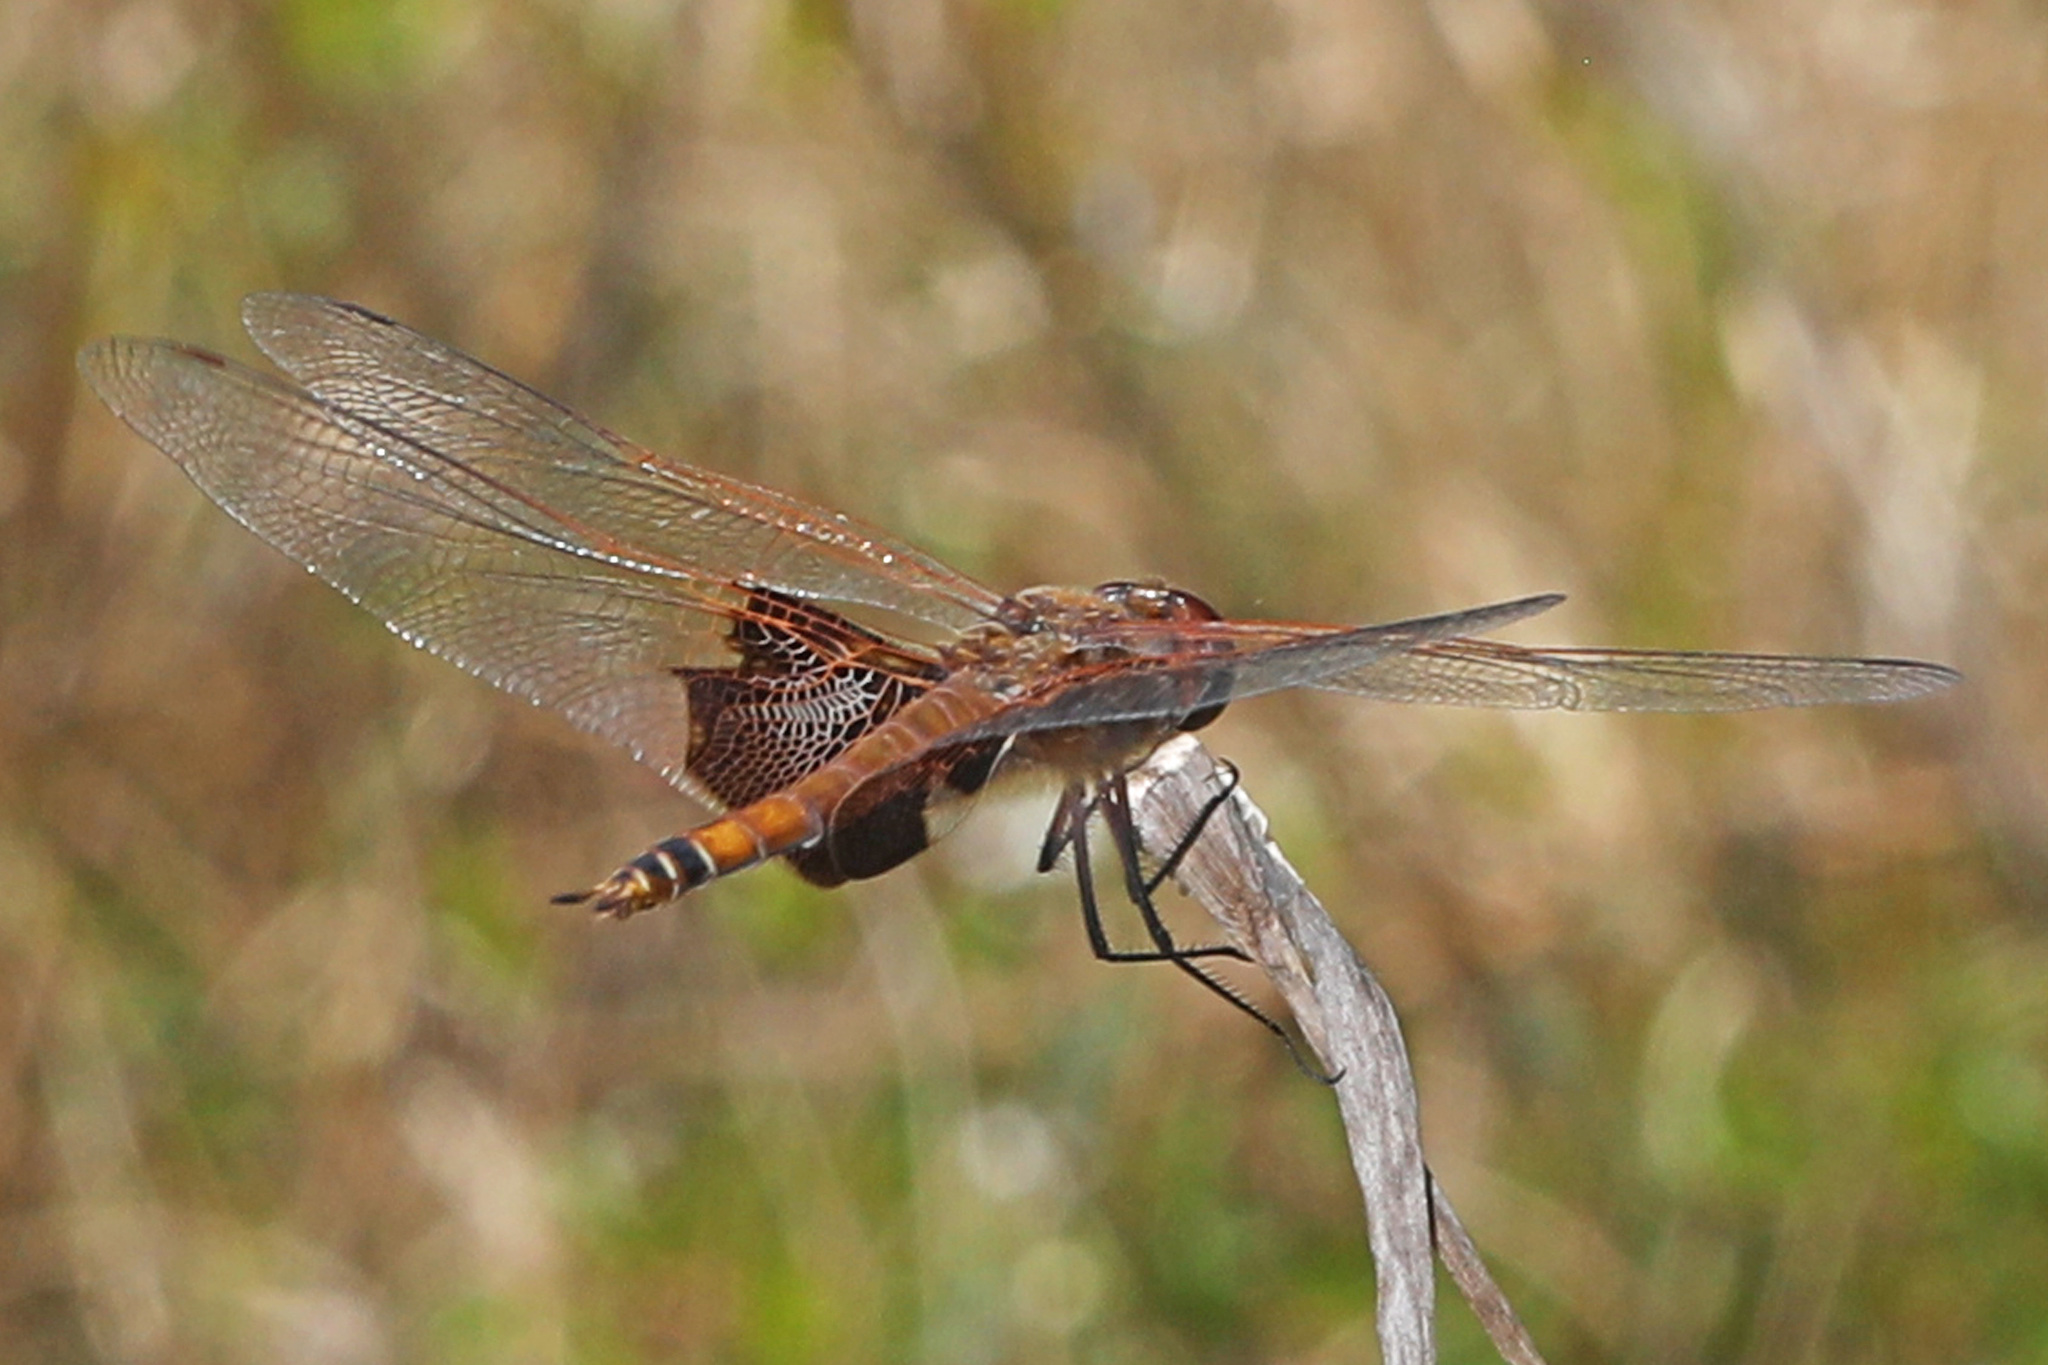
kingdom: Animalia
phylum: Arthropoda
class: Insecta
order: Odonata
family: Libellulidae
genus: Tramea
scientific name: Tramea carolina
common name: Carolina saddlebags
